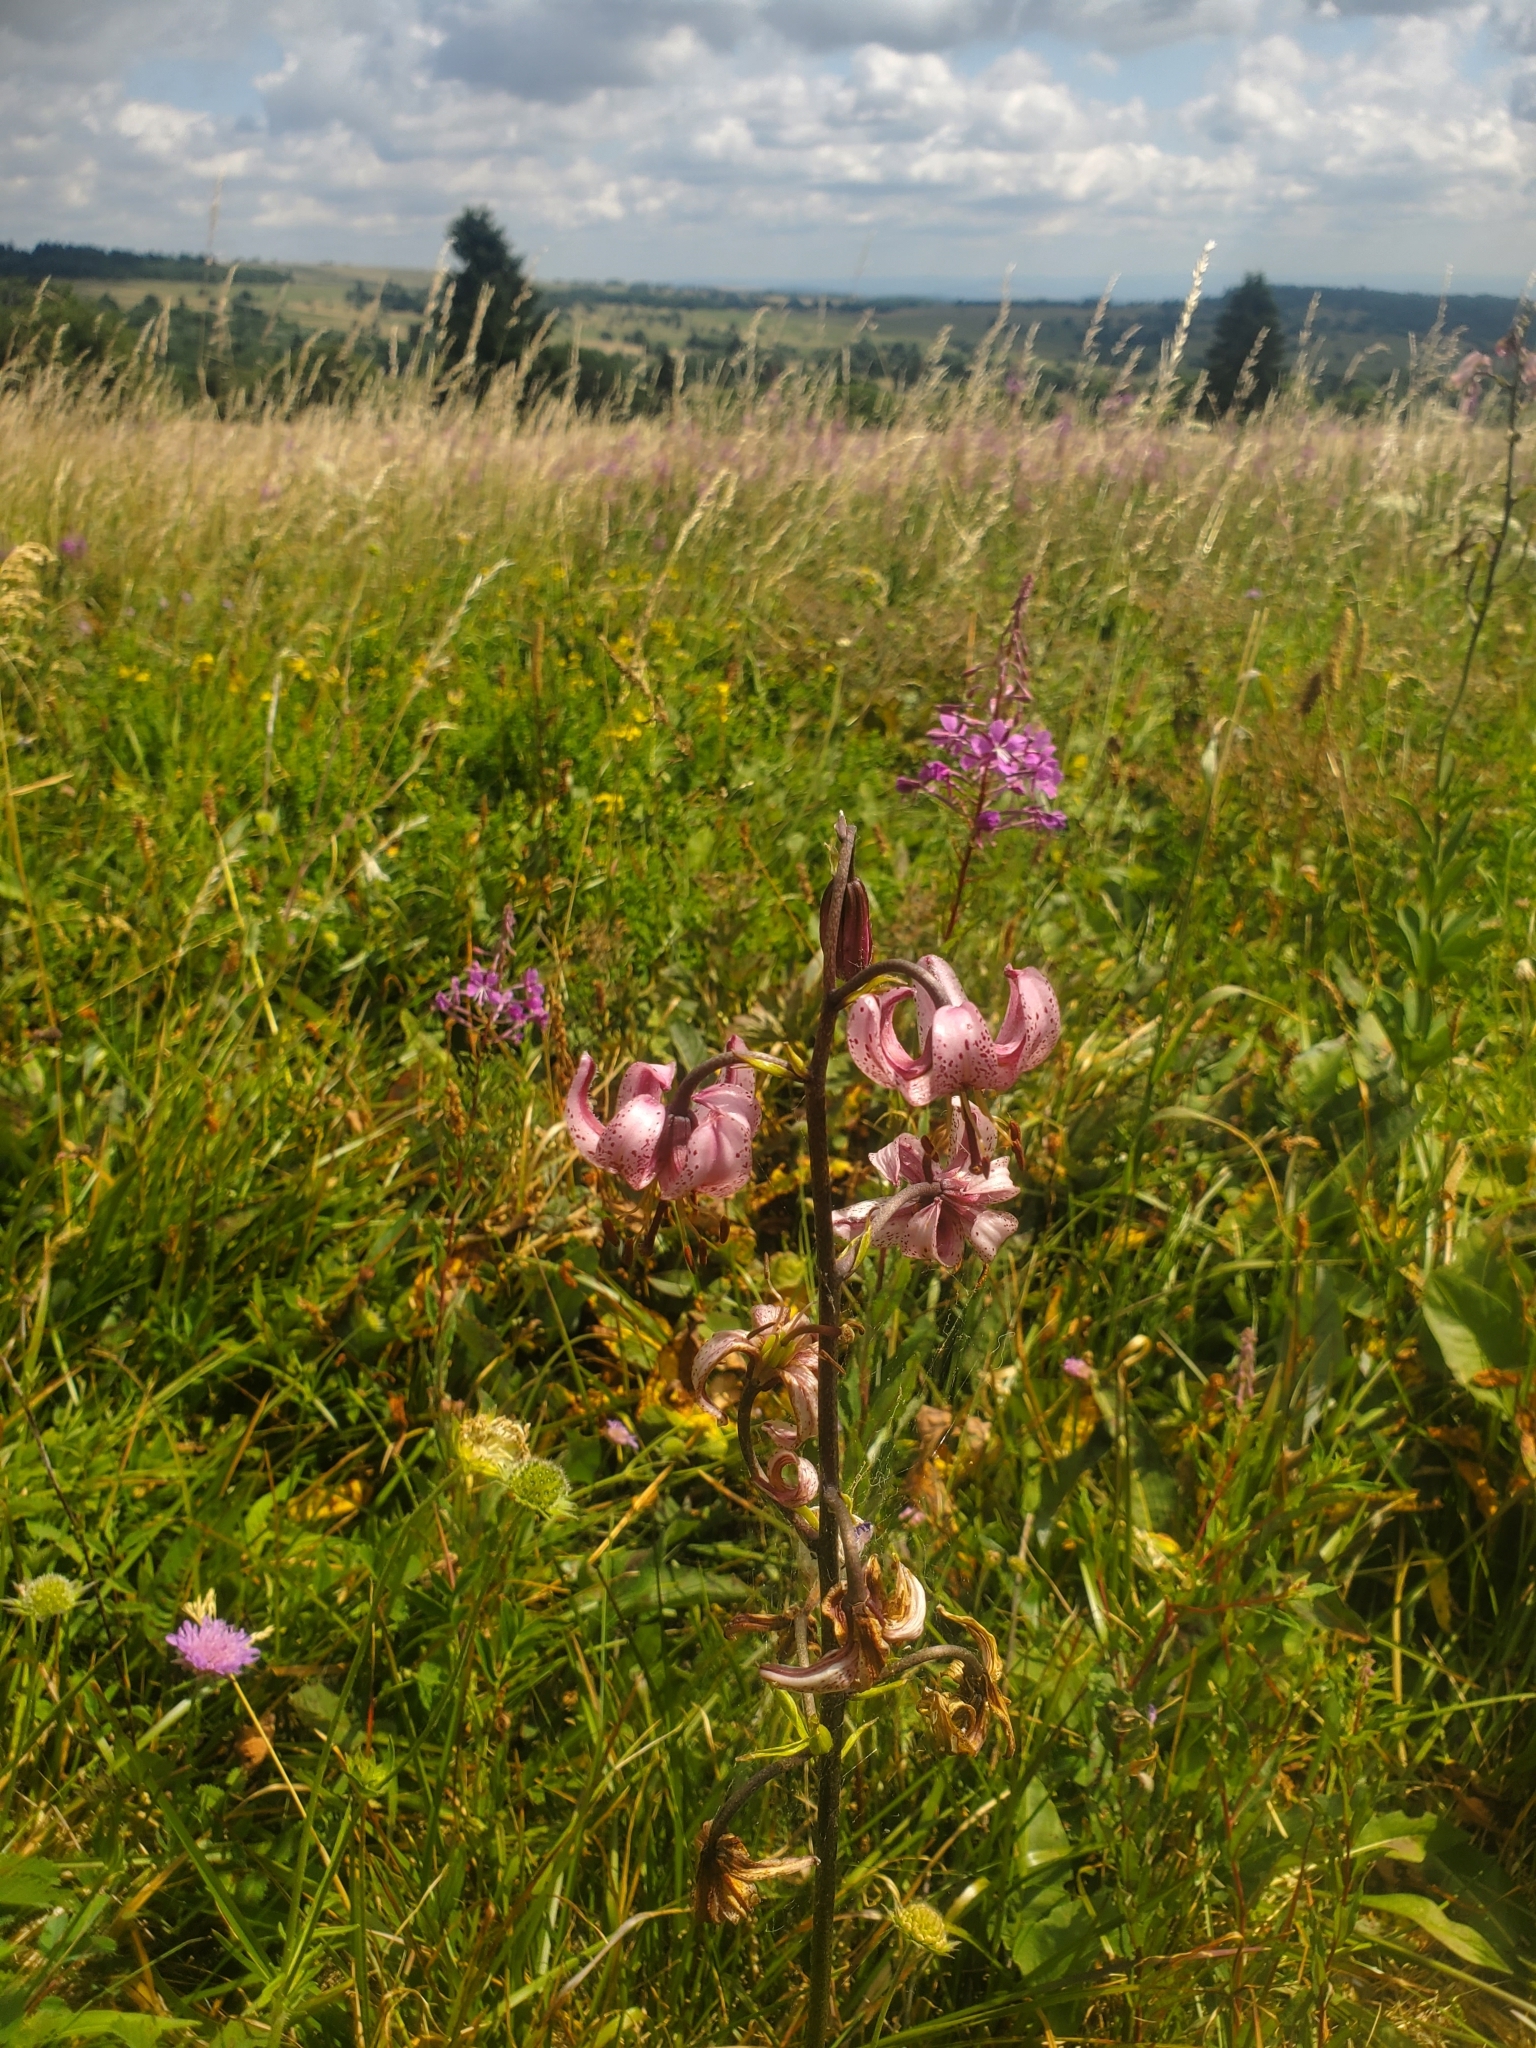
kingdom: Plantae
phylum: Tracheophyta
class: Liliopsida
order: Liliales
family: Liliaceae
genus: Lilium
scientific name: Lilium martagon
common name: Martagon lily
